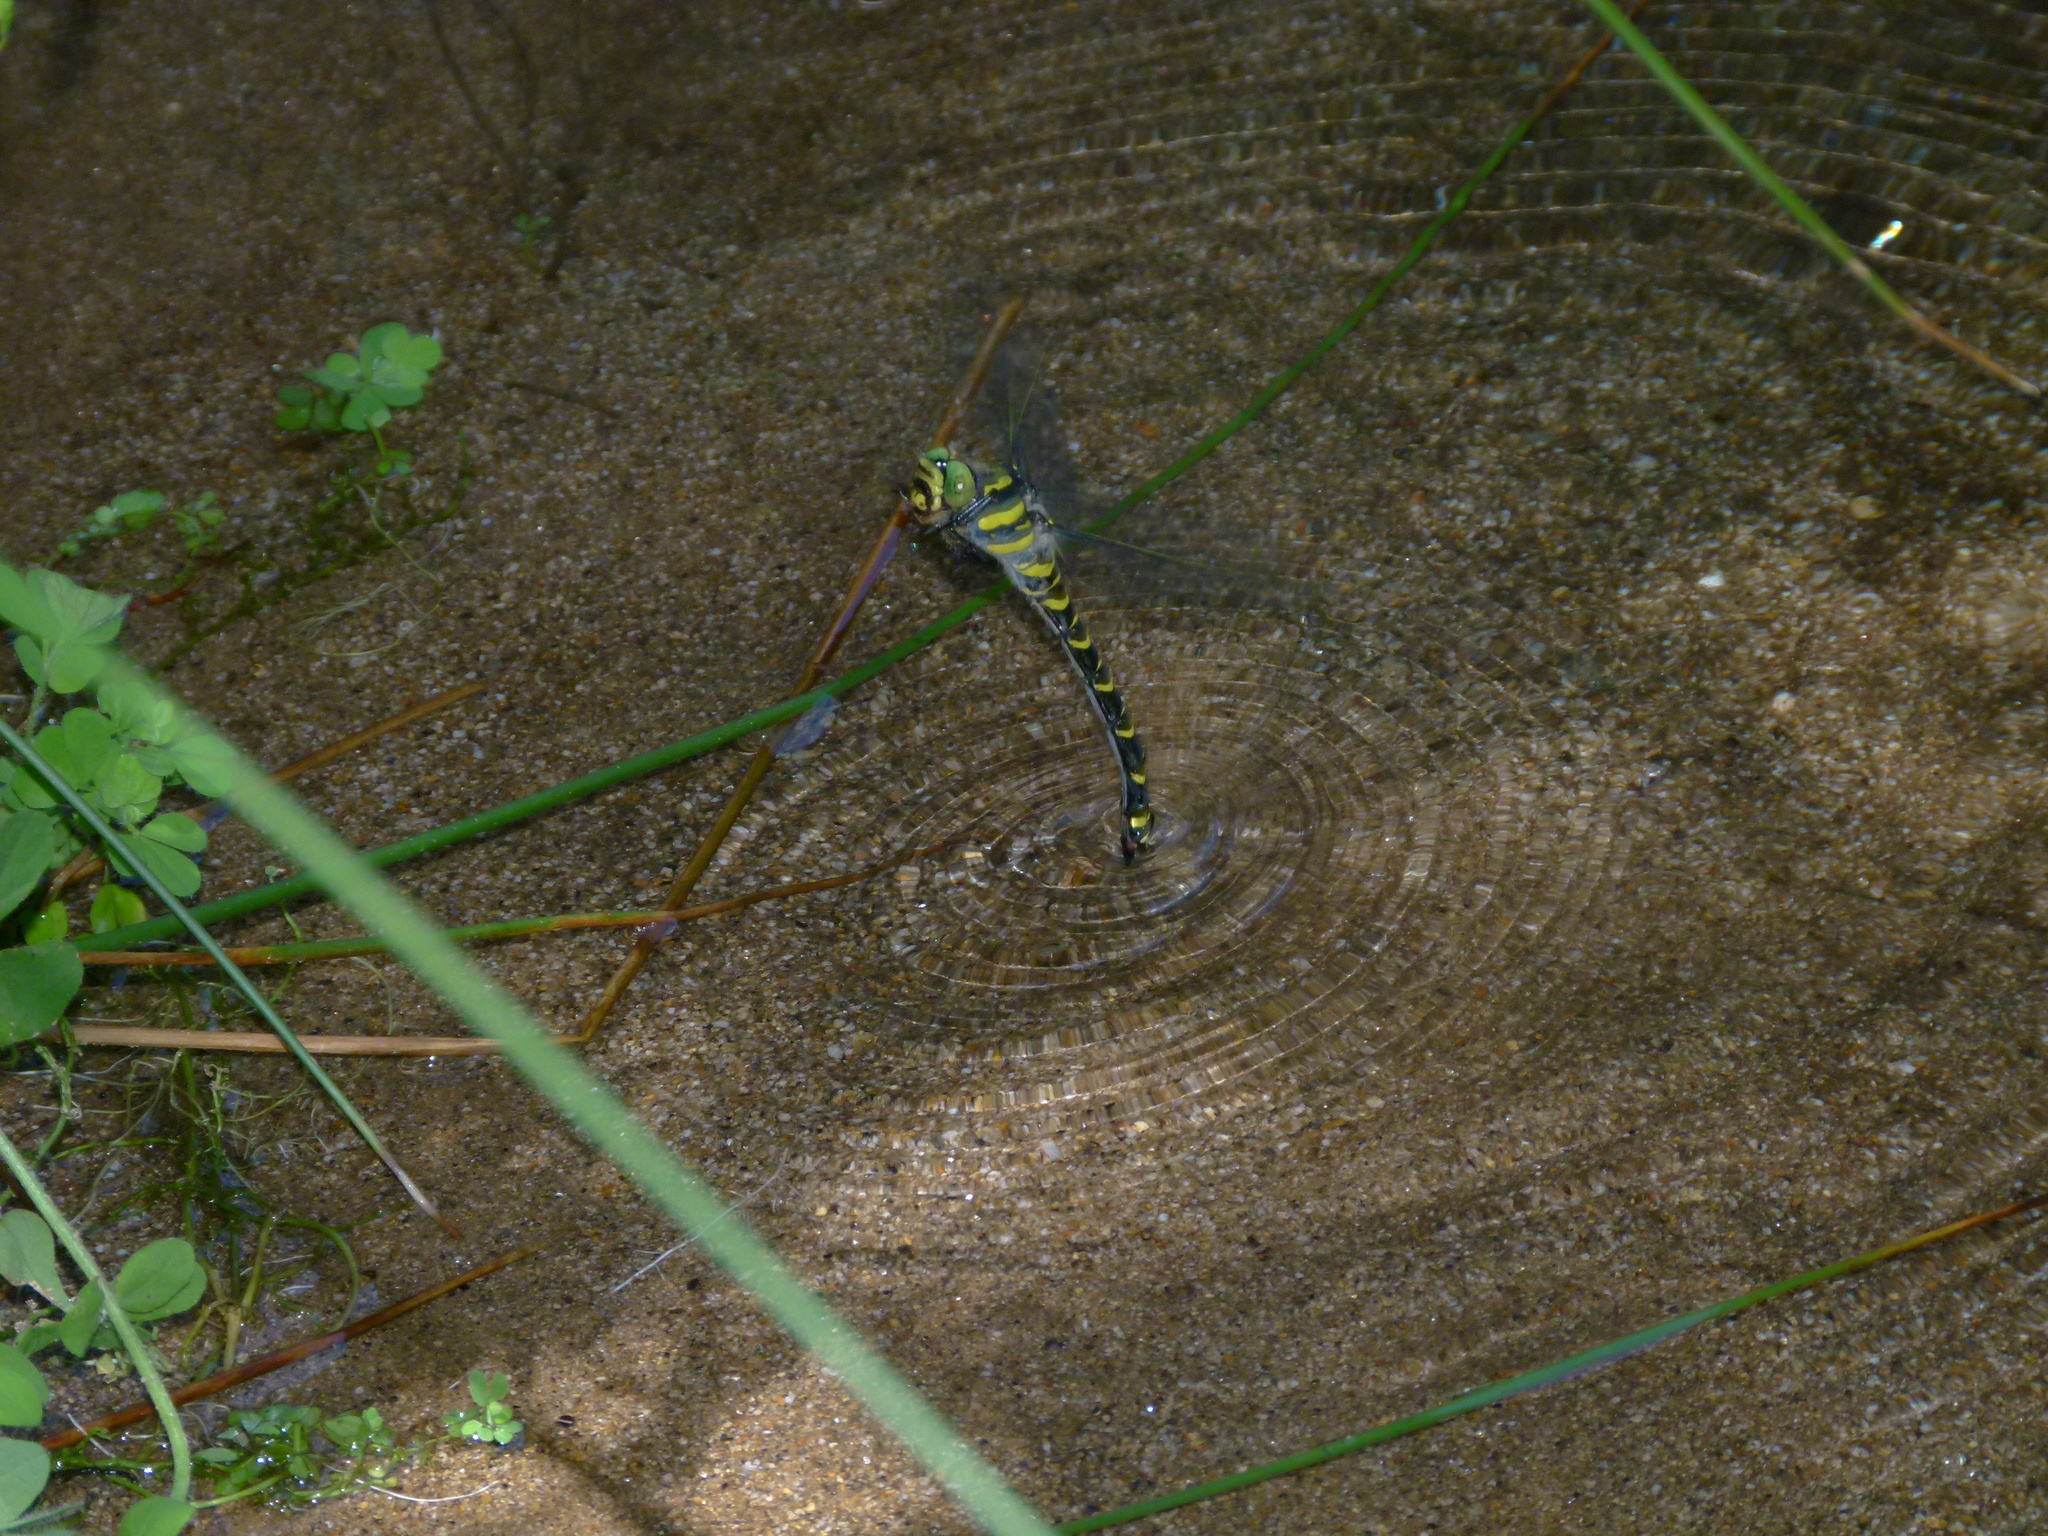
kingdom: Animalia
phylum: Arthropoda
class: Insecta
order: Odonata
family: Cordulegastridae
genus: Cordulegaster
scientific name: Cordulegaster boltonii
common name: Golden-ringed dragonfly
